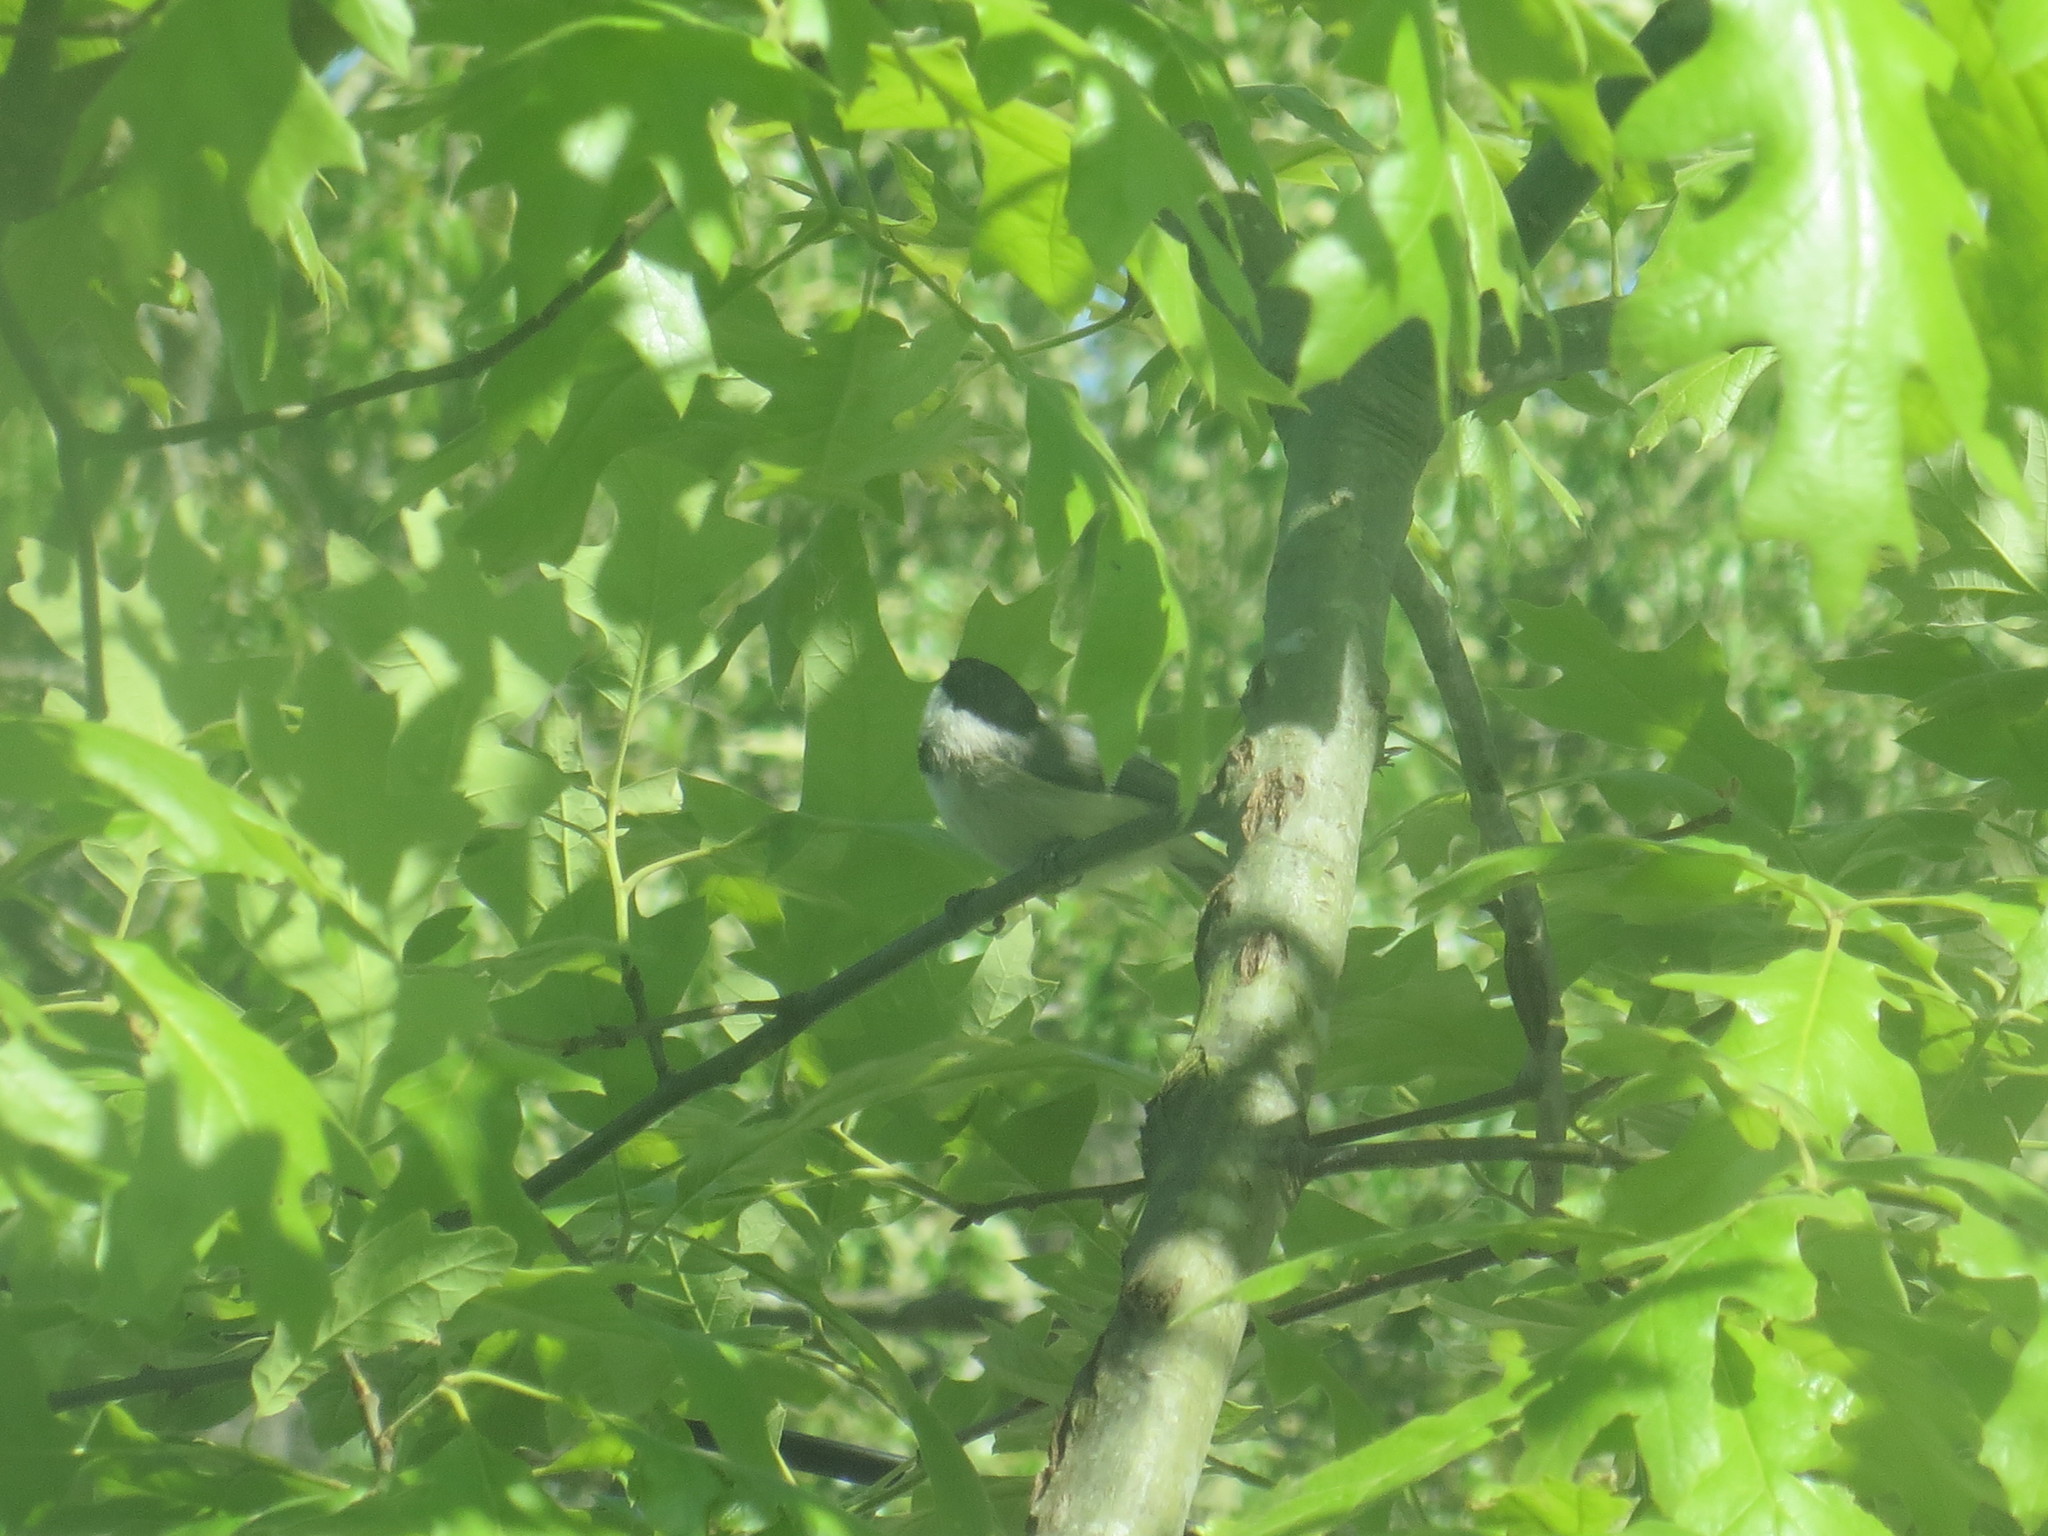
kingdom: Animalia
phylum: Chordata
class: Aves
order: Passeriformes
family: Paridae
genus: Poecile
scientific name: Poecile carolinensis
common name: Carolina chickadee
